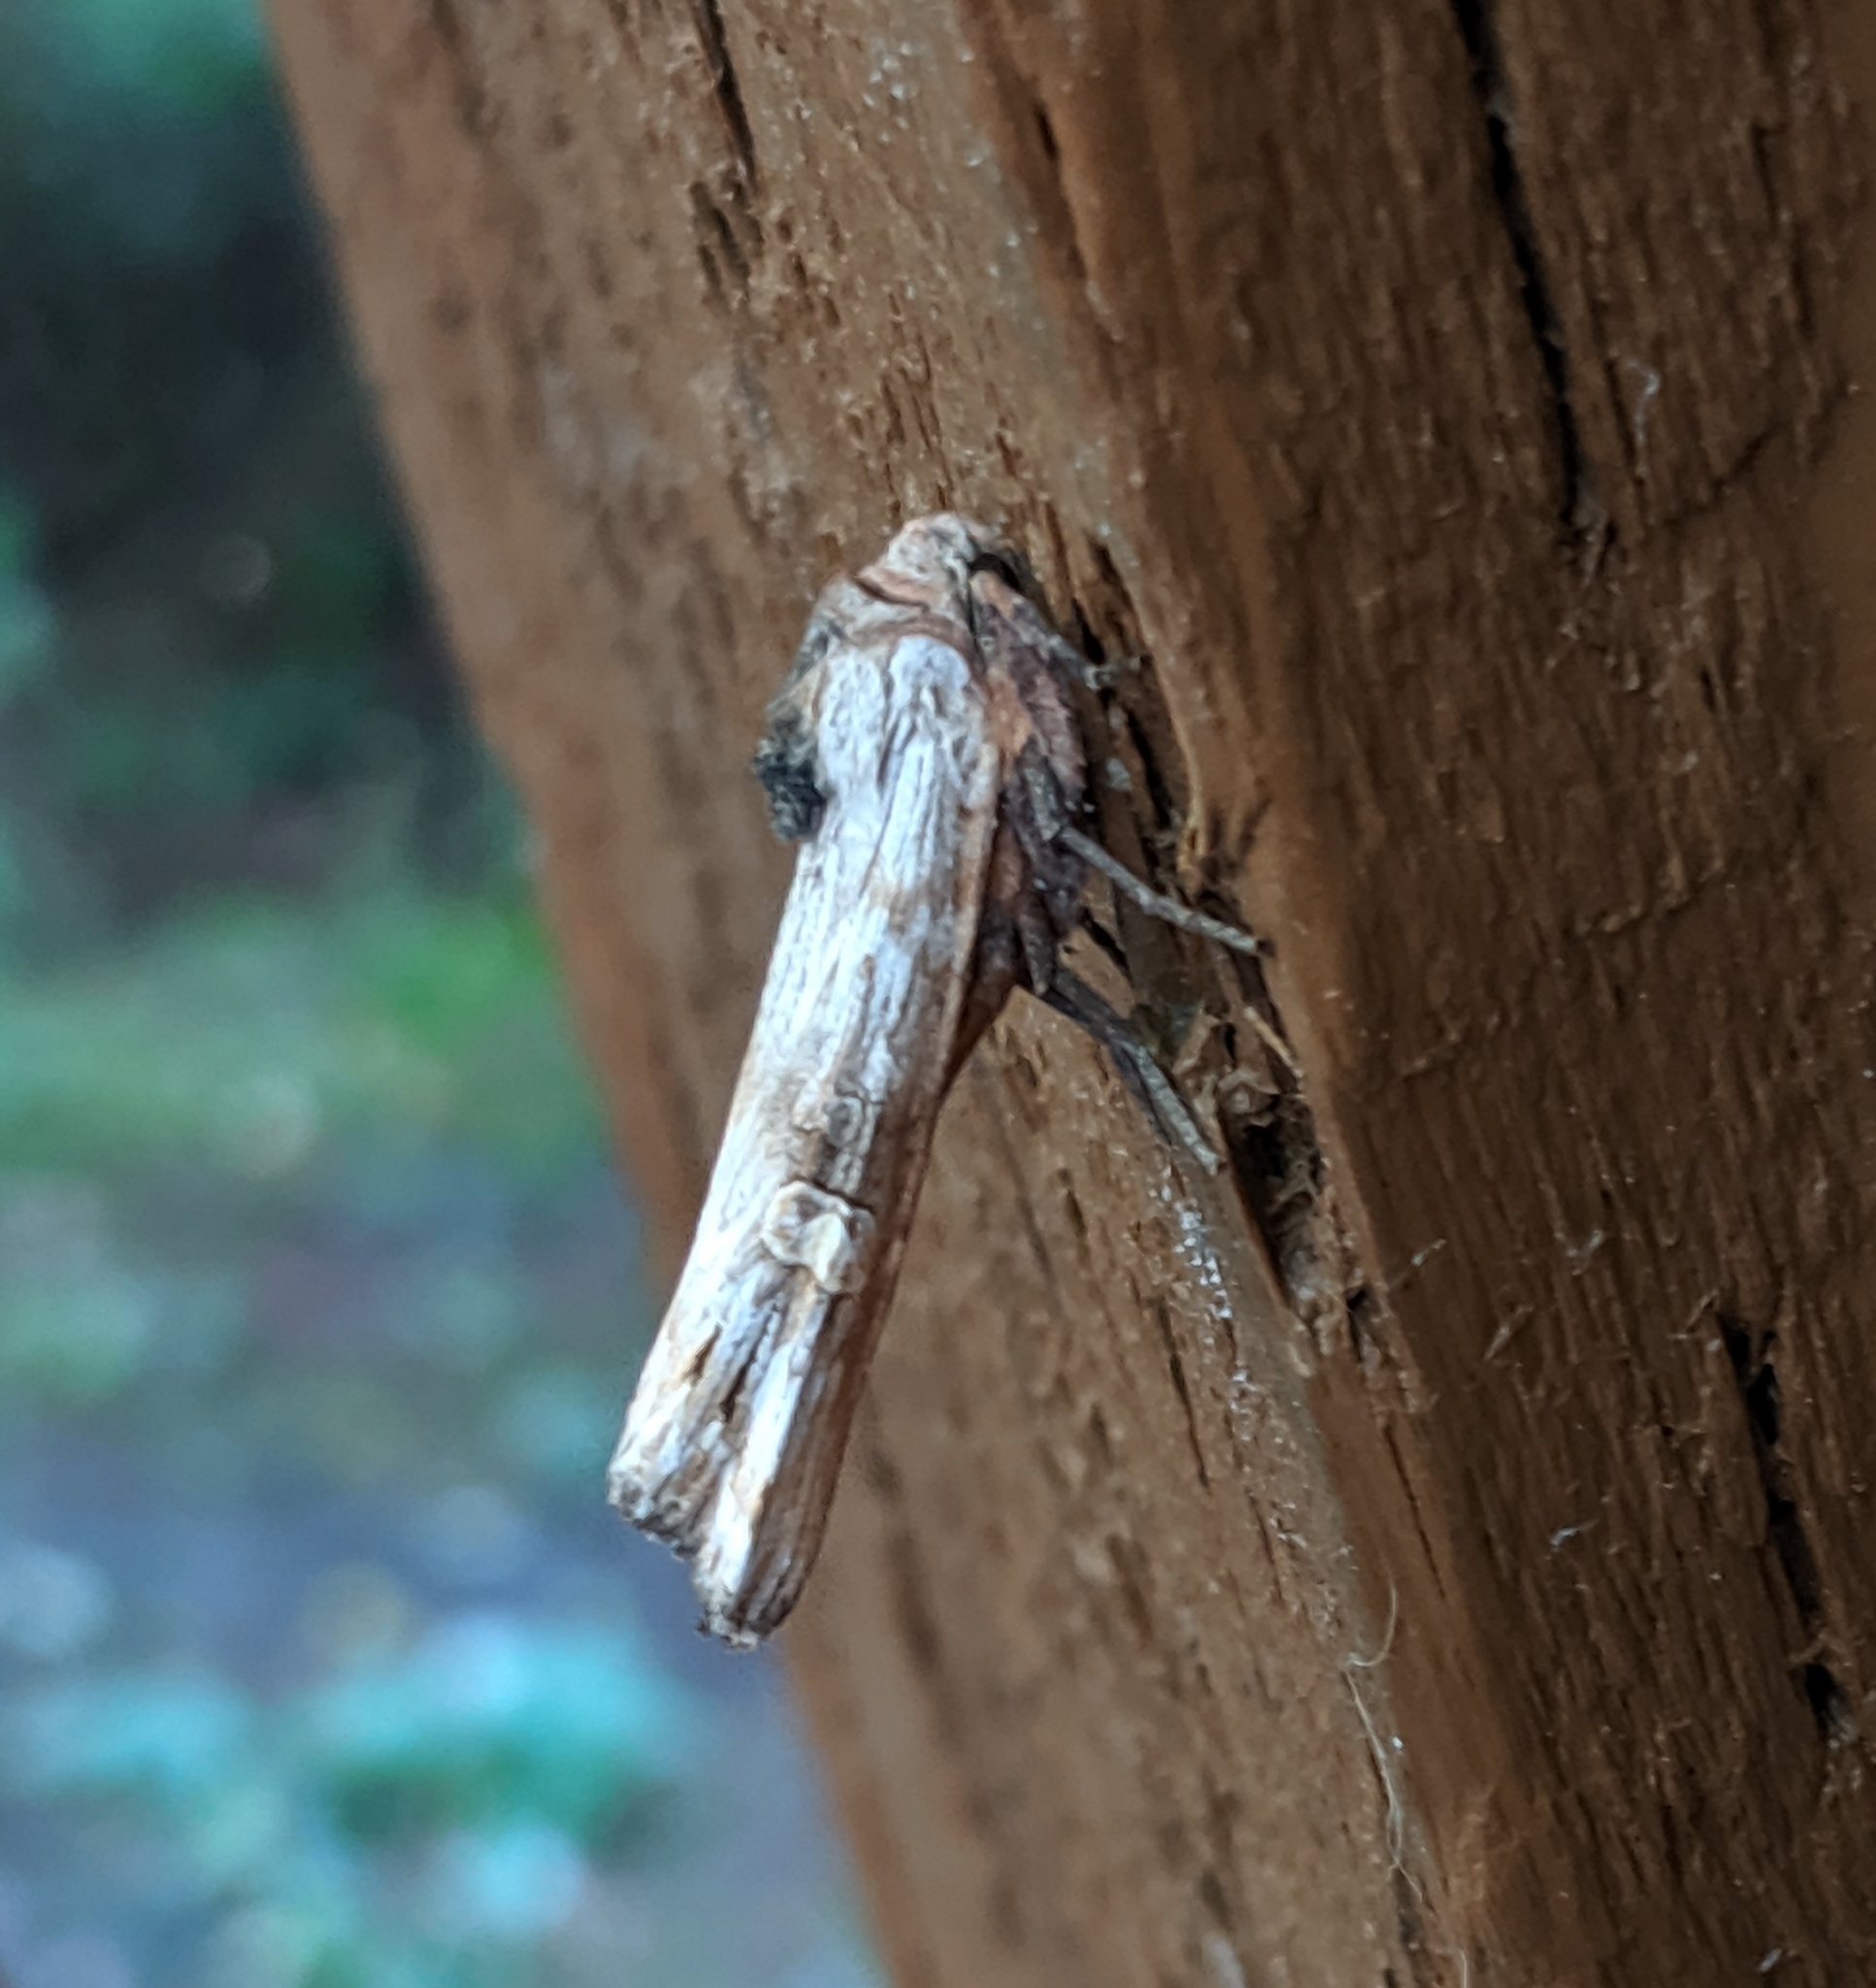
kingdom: Animalia
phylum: Arthropoda
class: Insecta
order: Lepidoptera
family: Noctuidae
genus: Xylena
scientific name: Xylena germana
